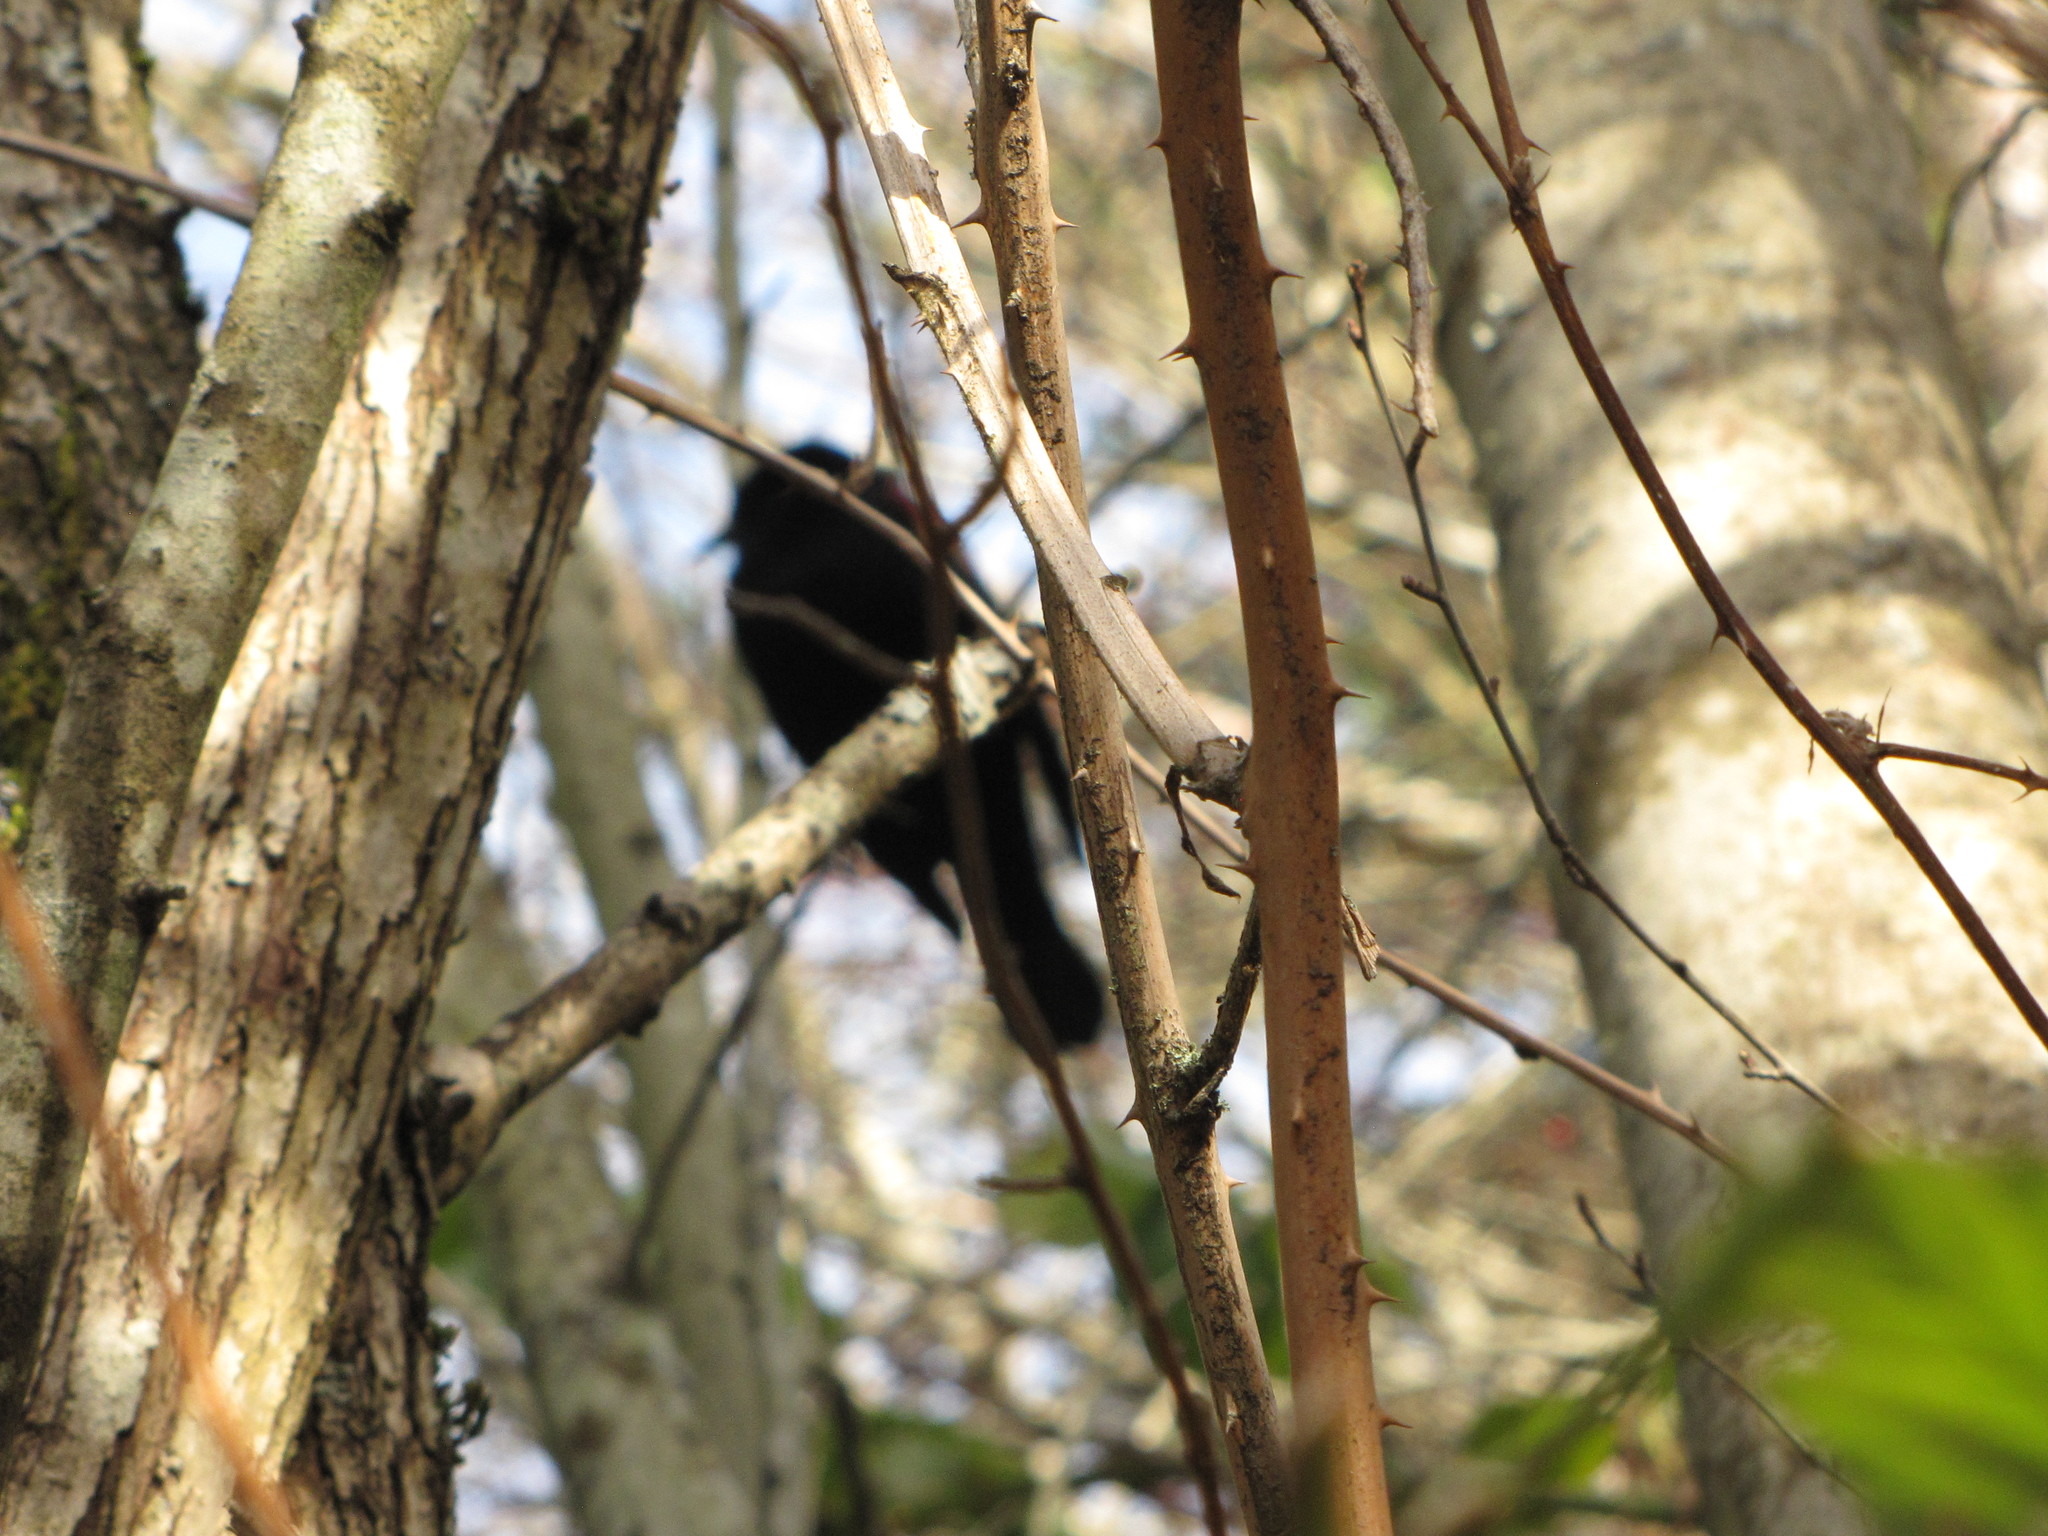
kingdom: Animalia
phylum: Chordata
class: Aves
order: Passeriformes
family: Icteridae
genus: Agelaius
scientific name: Agelaius phoeniceus
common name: Red-winged blackbird
